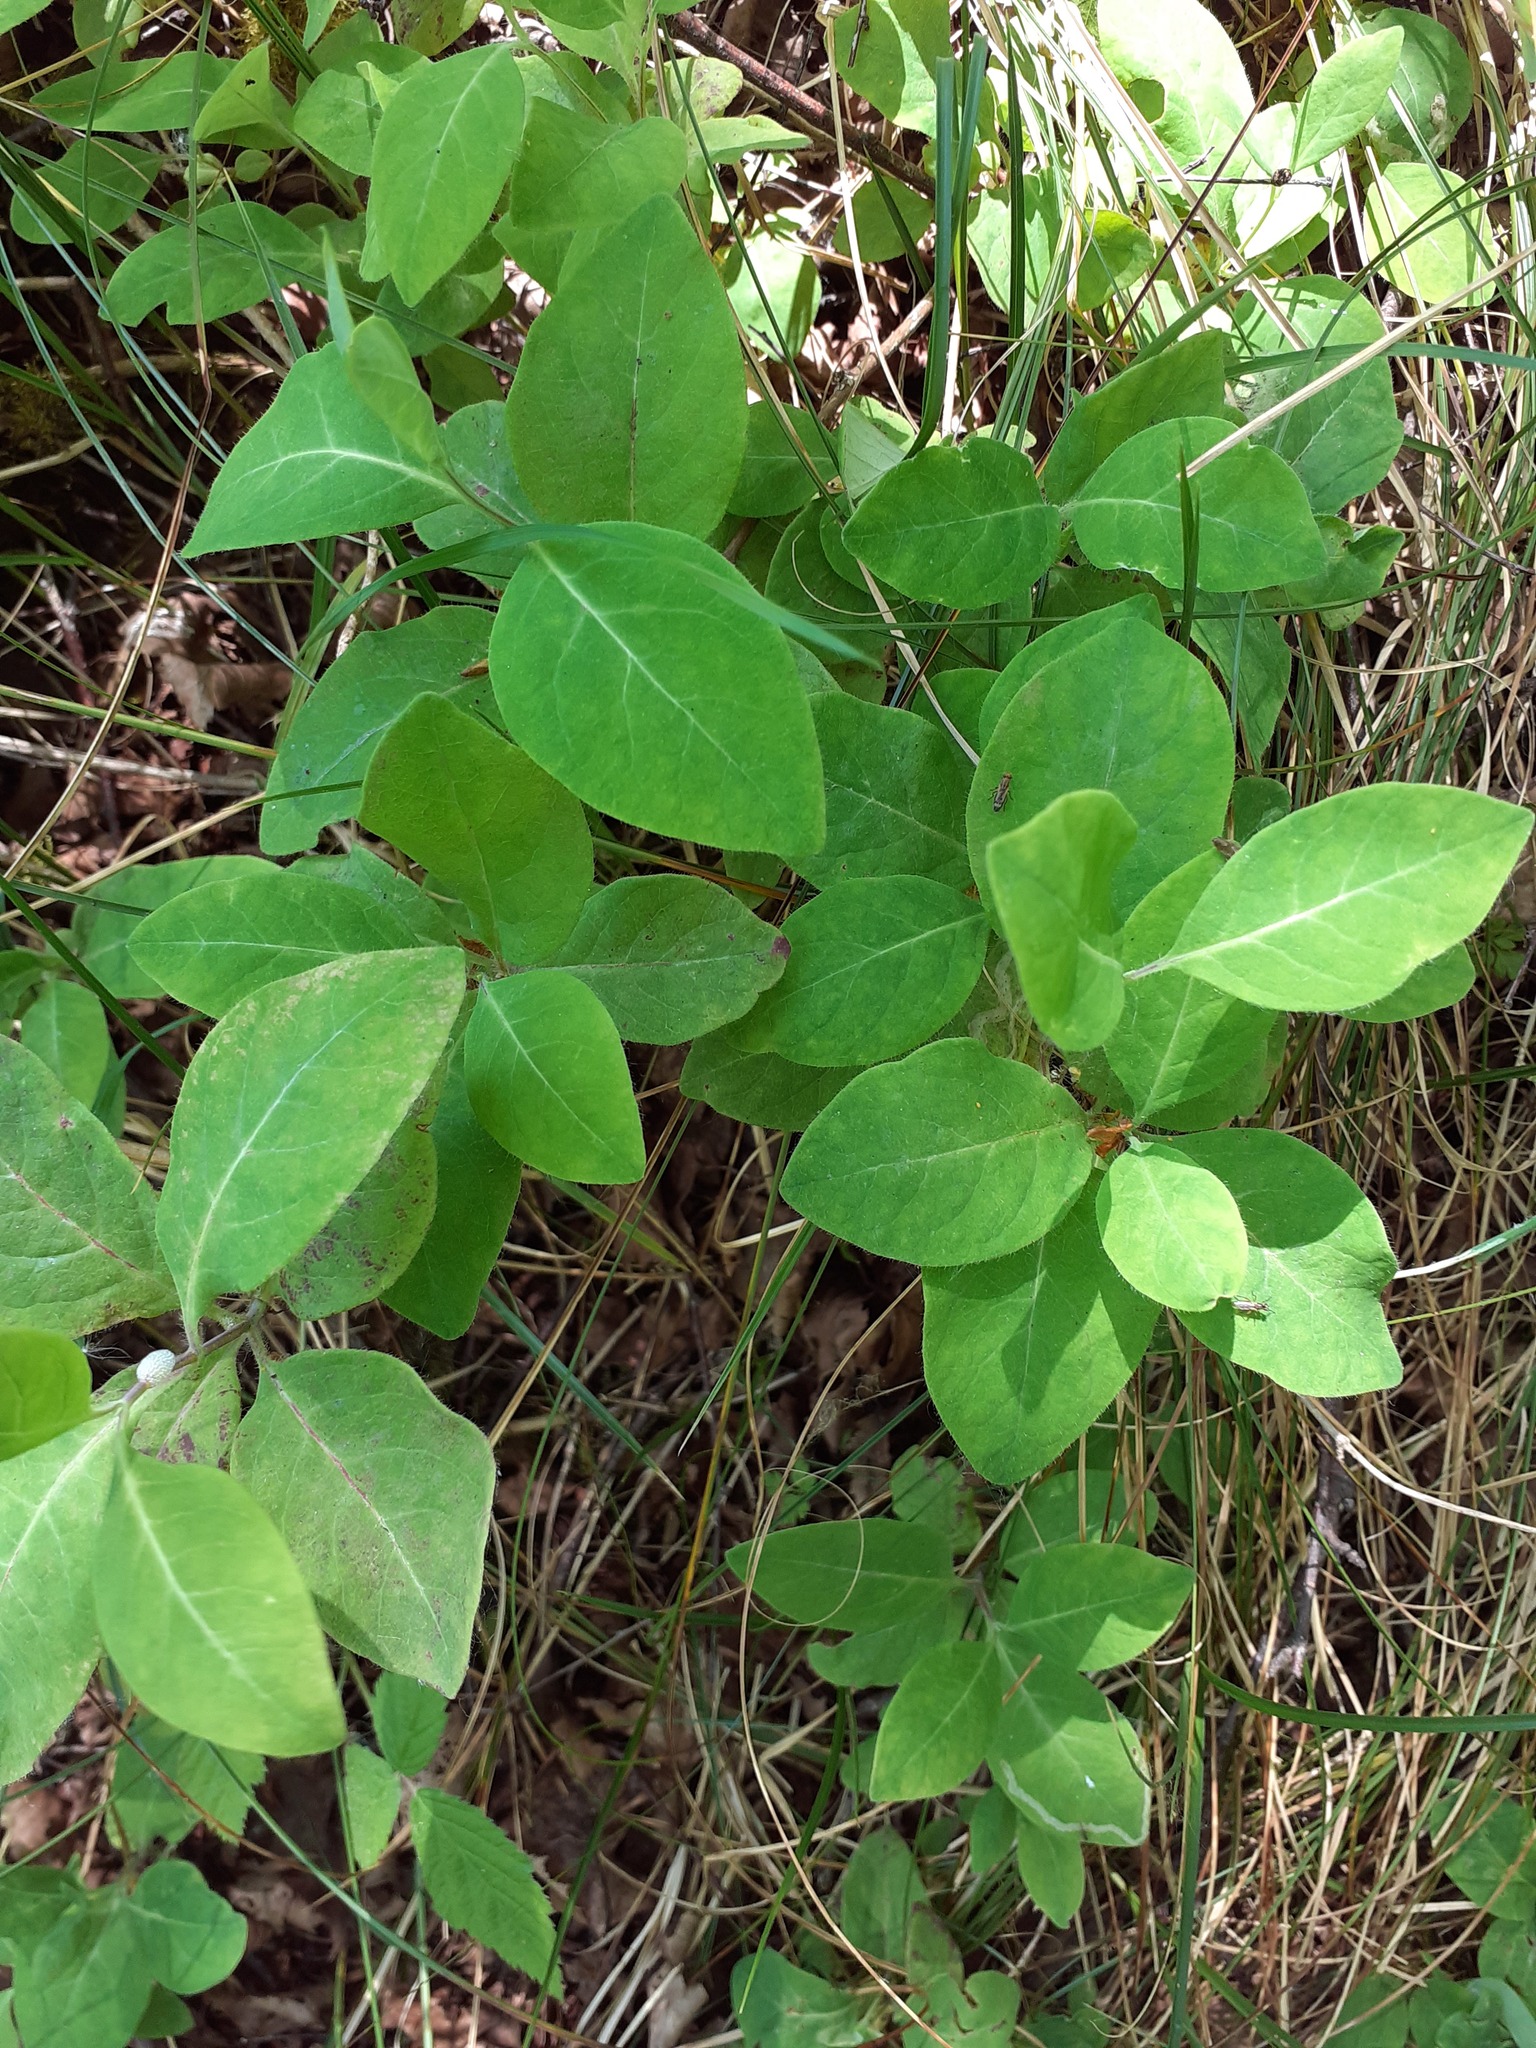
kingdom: Plantae
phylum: Tracheophyta
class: Magnoliopsida
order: Dipsacales
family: Caprifoliaceae
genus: Lonicera
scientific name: Lonicera periclymenum
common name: European honeysuckle
